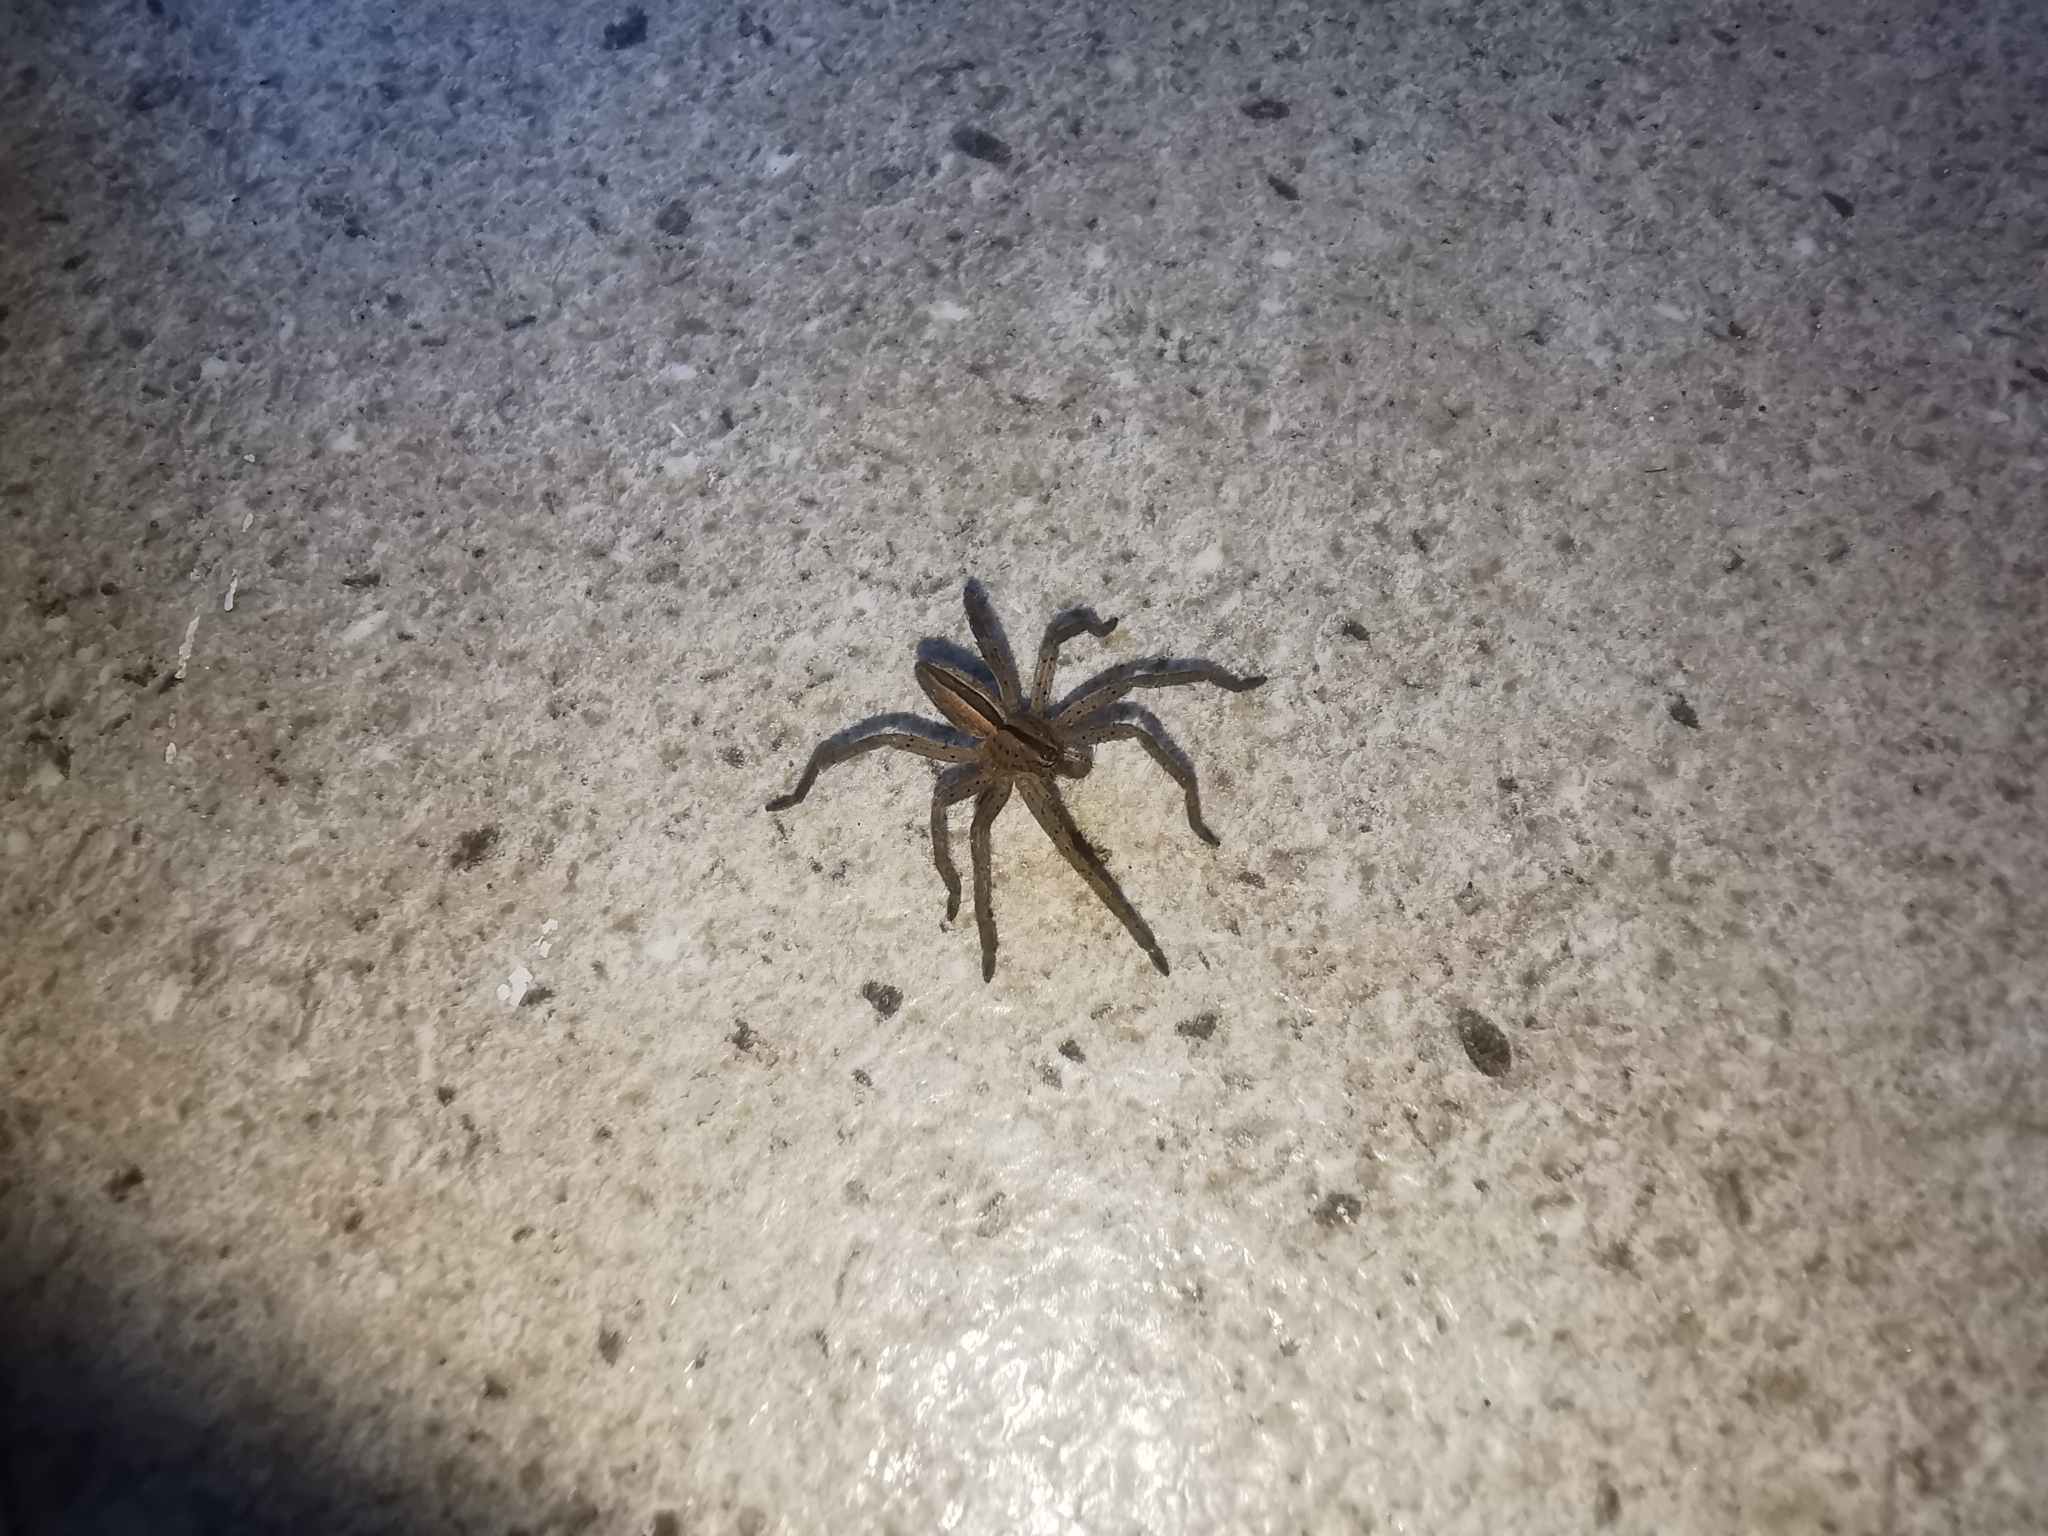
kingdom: Animalia
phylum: Arthropoda
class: Arachnida
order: Araneae
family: Sparassidae
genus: Micrommata
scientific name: Micrommata ligurina
